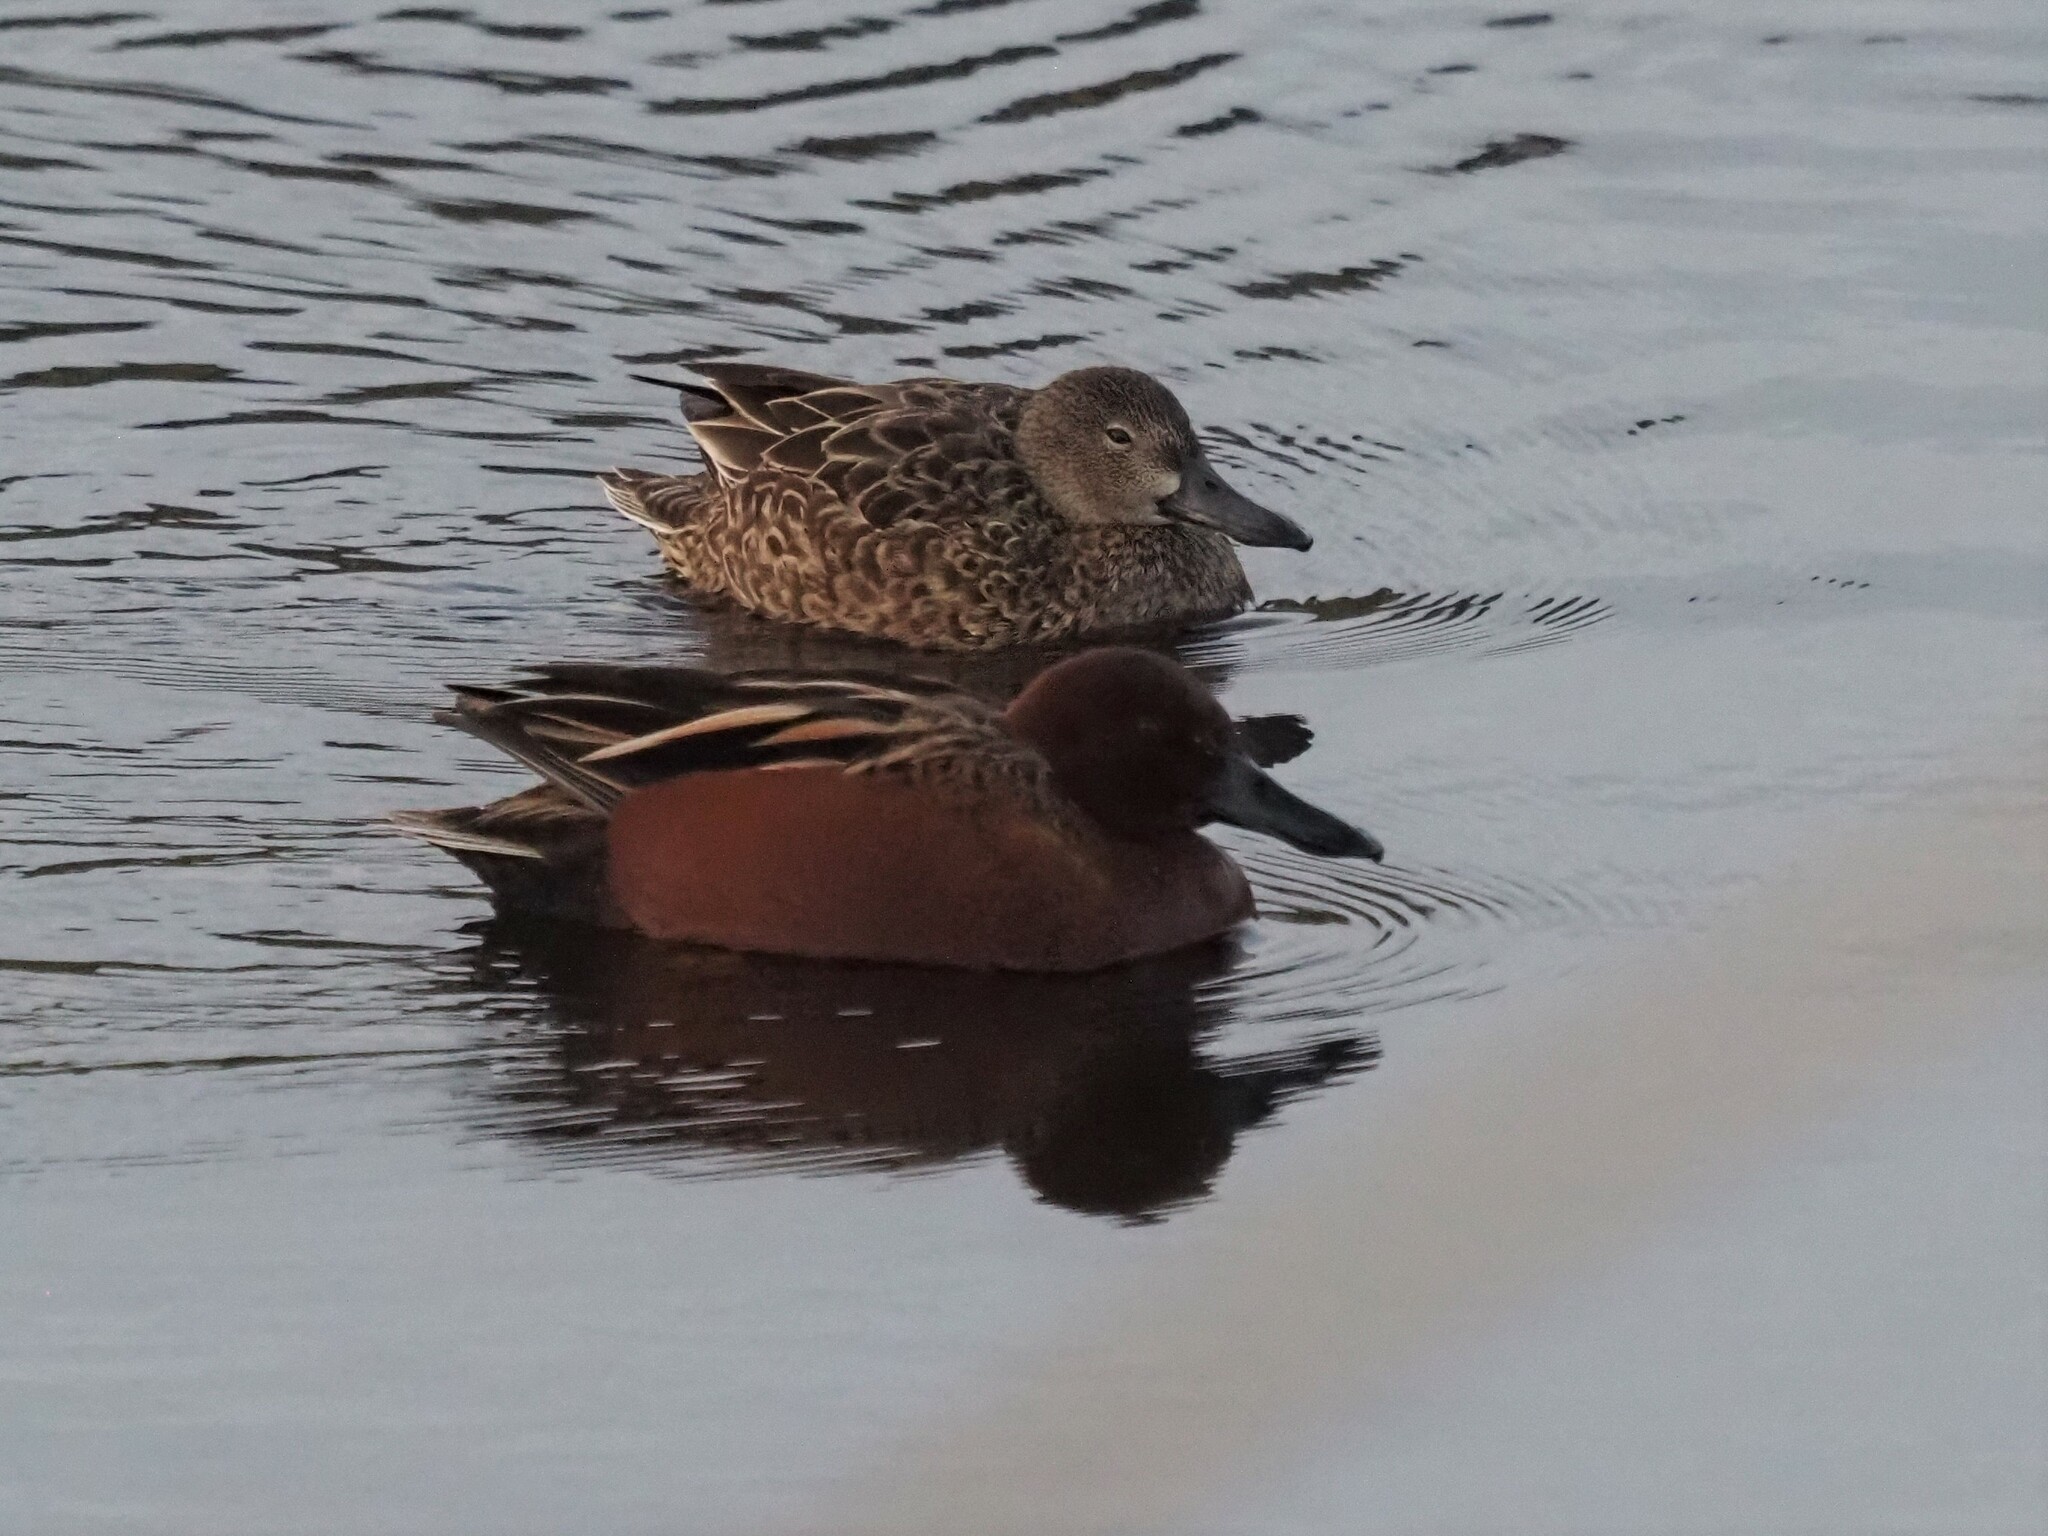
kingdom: Animalia
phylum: Chordata
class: Aves
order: Anseriformes
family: Anatidae
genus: Spatula
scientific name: Spatula cyanoptera
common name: Cinnamon teal
